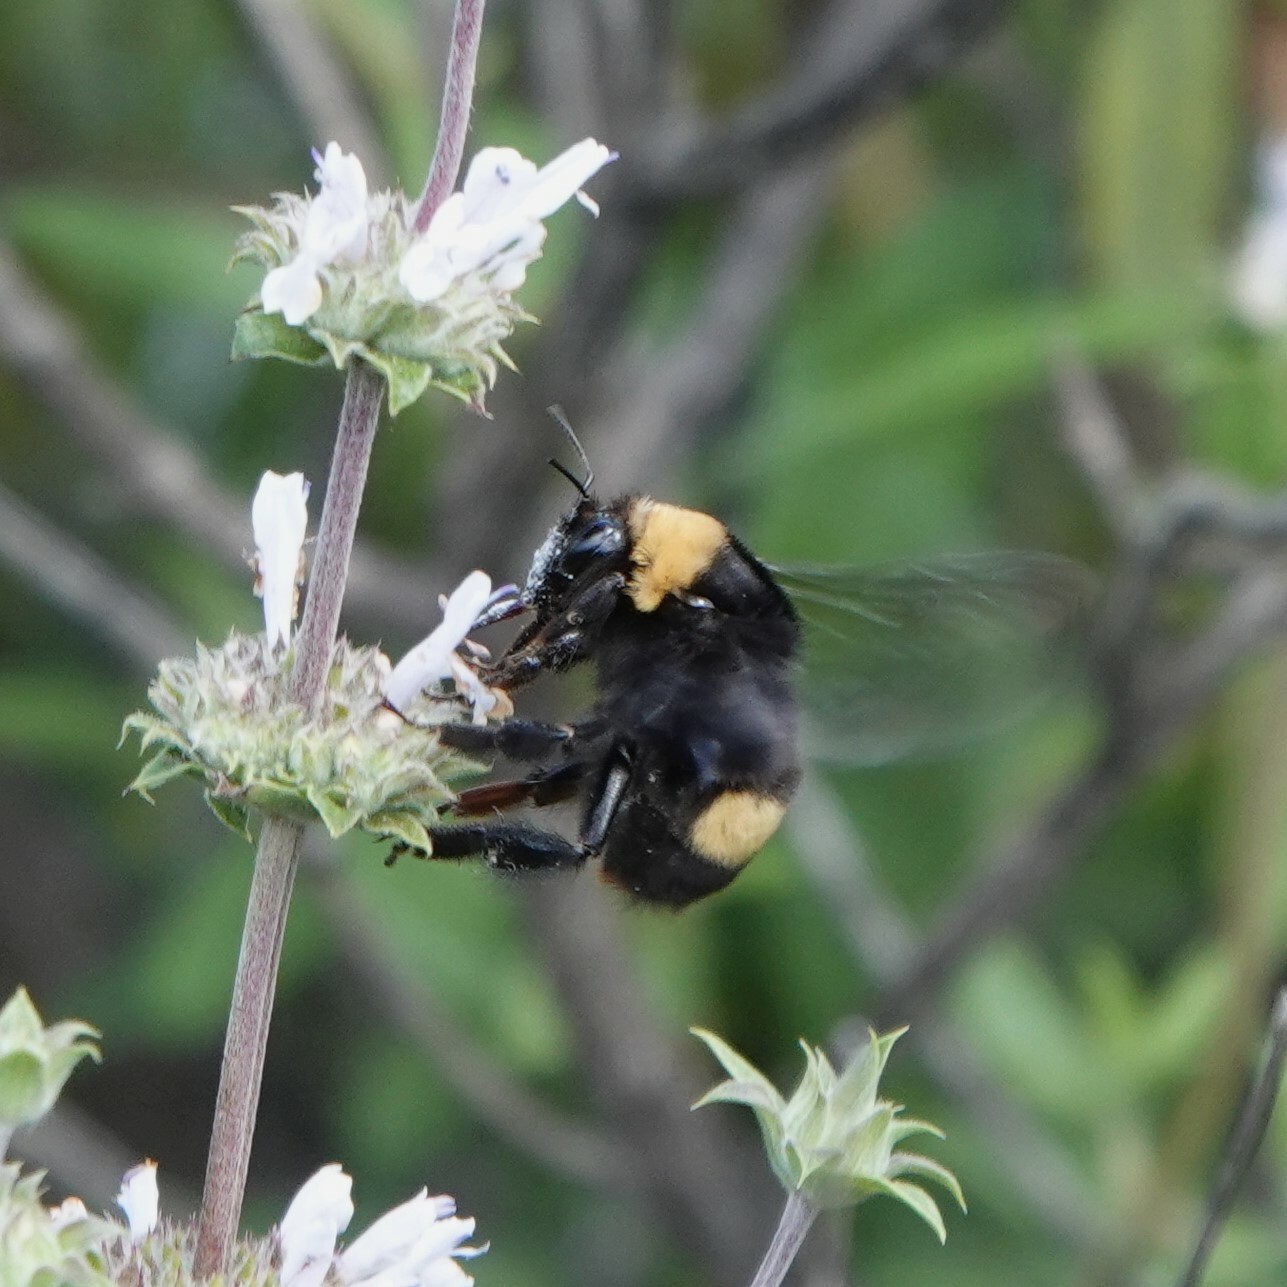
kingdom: Animalia
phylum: Arthropoda
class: Insecta
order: Hymenoptera
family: Apidae
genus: Bombus
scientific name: Bombus crotchii
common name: Crotch bumble bee
